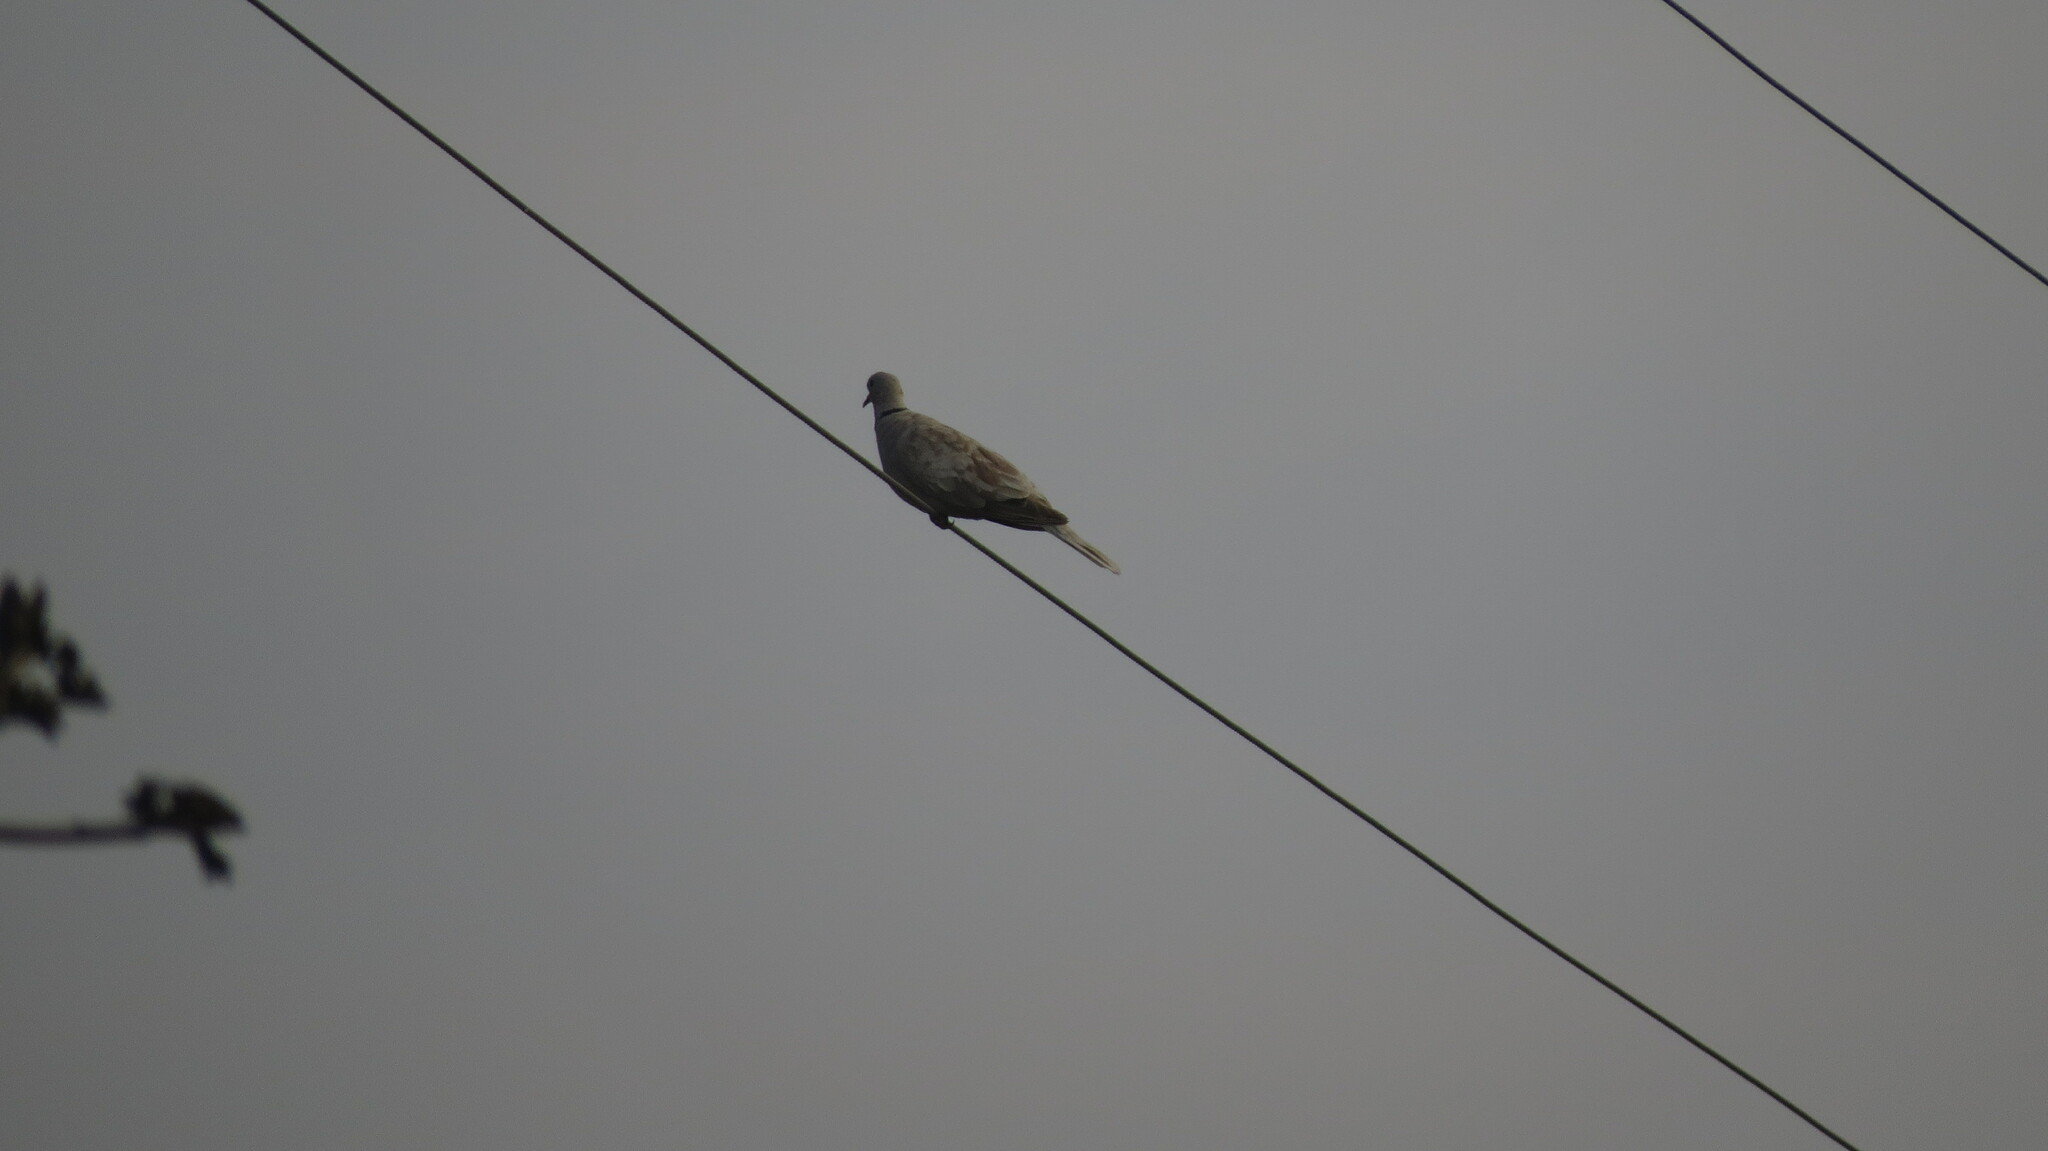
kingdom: Animalia
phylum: Chordata
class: Aves
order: Columbiformes
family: Columbidae
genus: Streptopelia
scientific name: Streptopelia decaocto
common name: Eurasian collared dove
